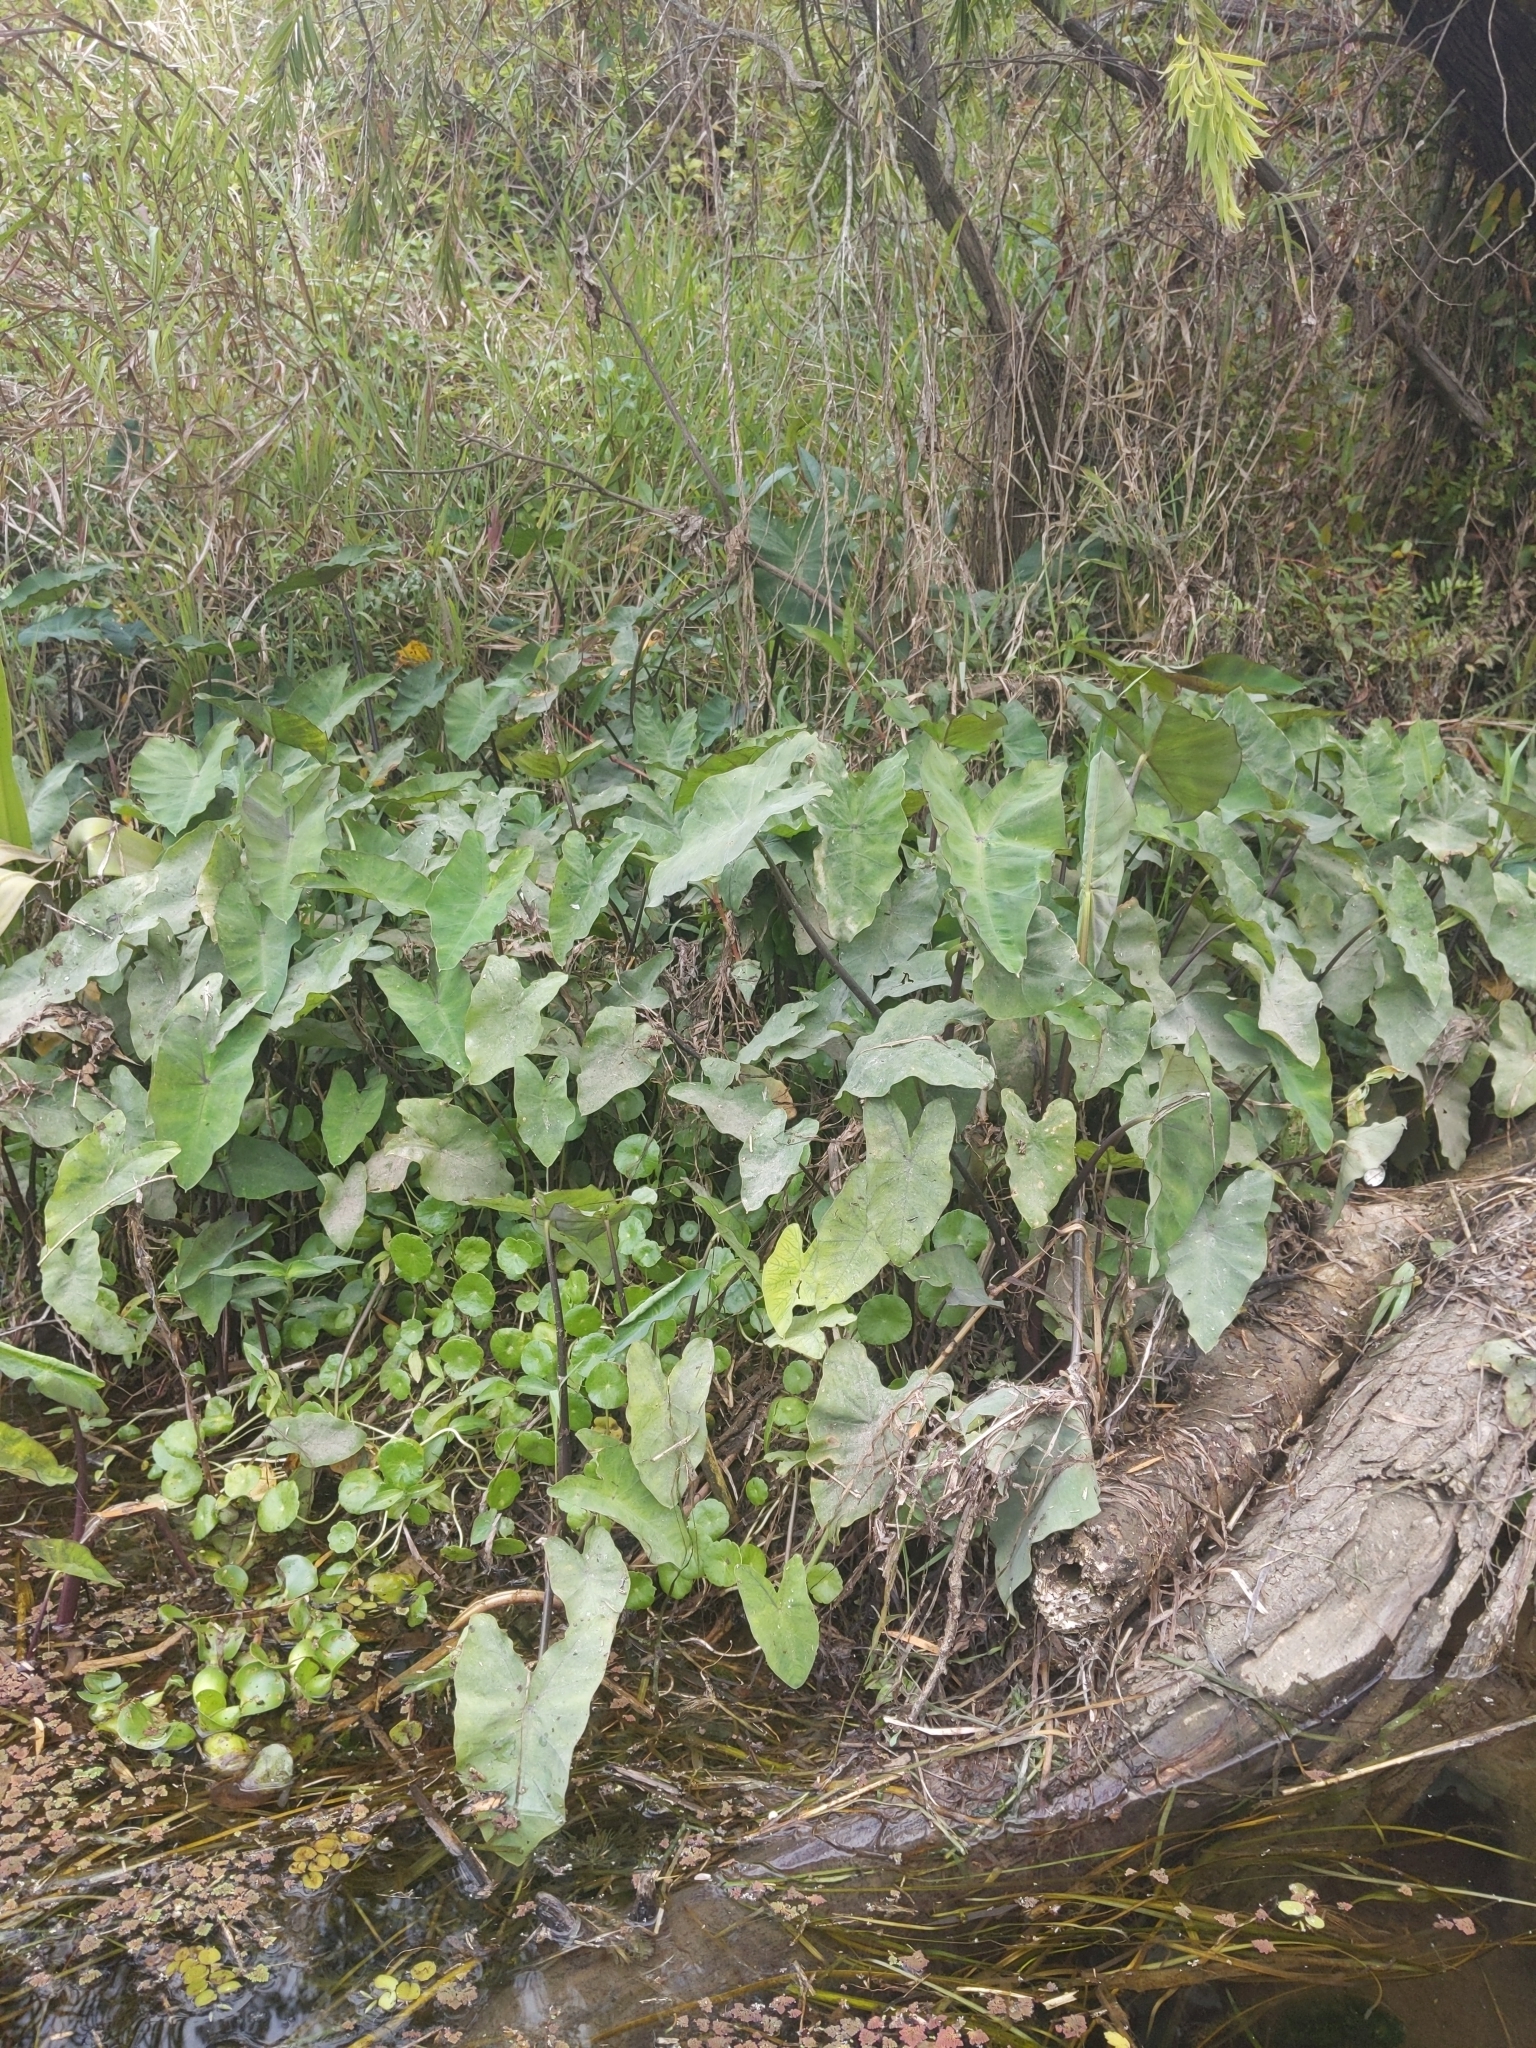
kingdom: Plantae
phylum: Tracheophyta
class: Liliopsida
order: Alismatales
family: Araceae
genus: Colocasia
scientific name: Colocasia esculenta
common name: Taro
